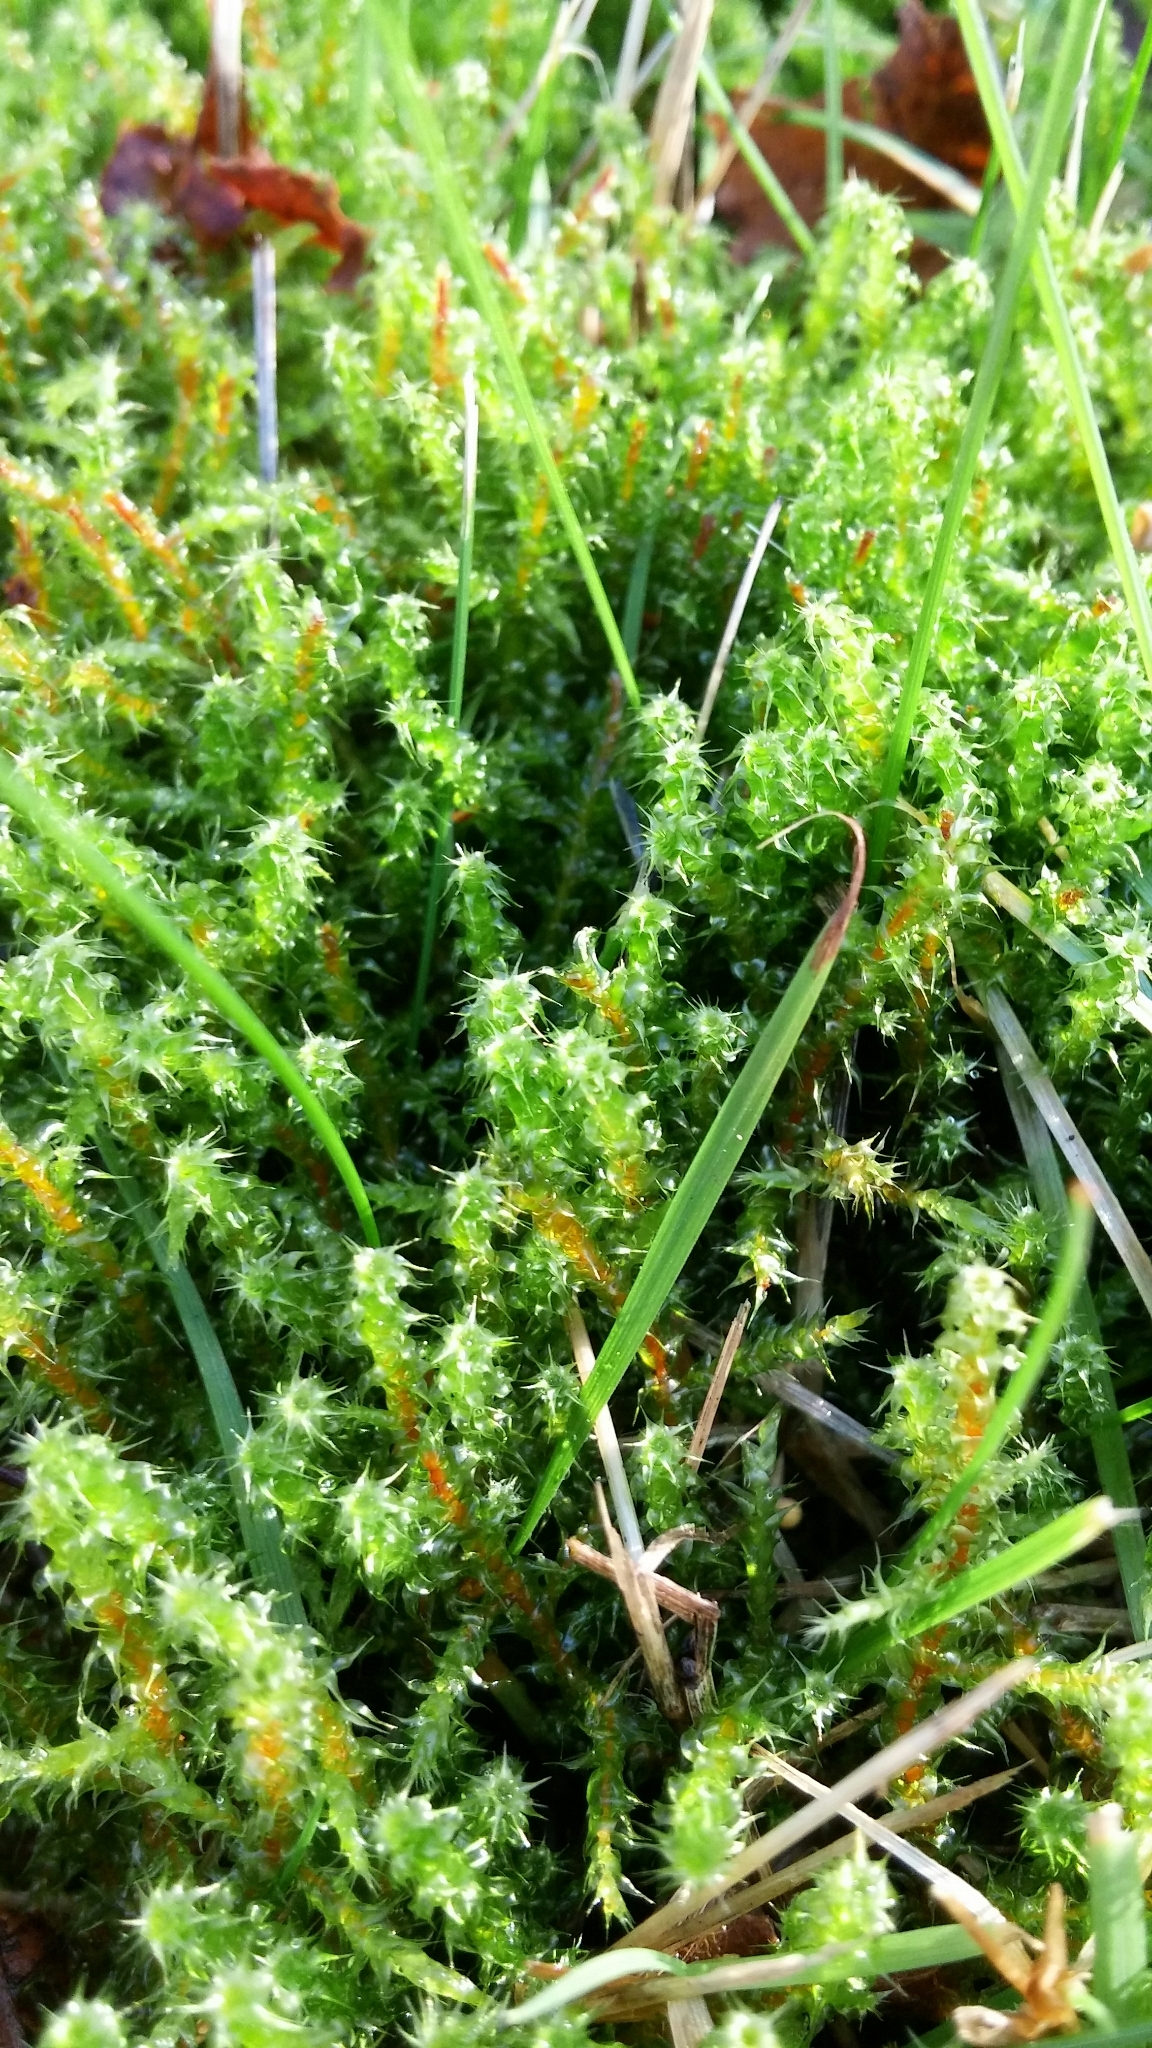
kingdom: Plantae
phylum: Bryophyta
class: Bryopsida
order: Hypnales
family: Hylocomiaceae
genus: Rhytidiadelphus
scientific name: Rhytidiadelphus squarrosus
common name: Springy turf-moss
